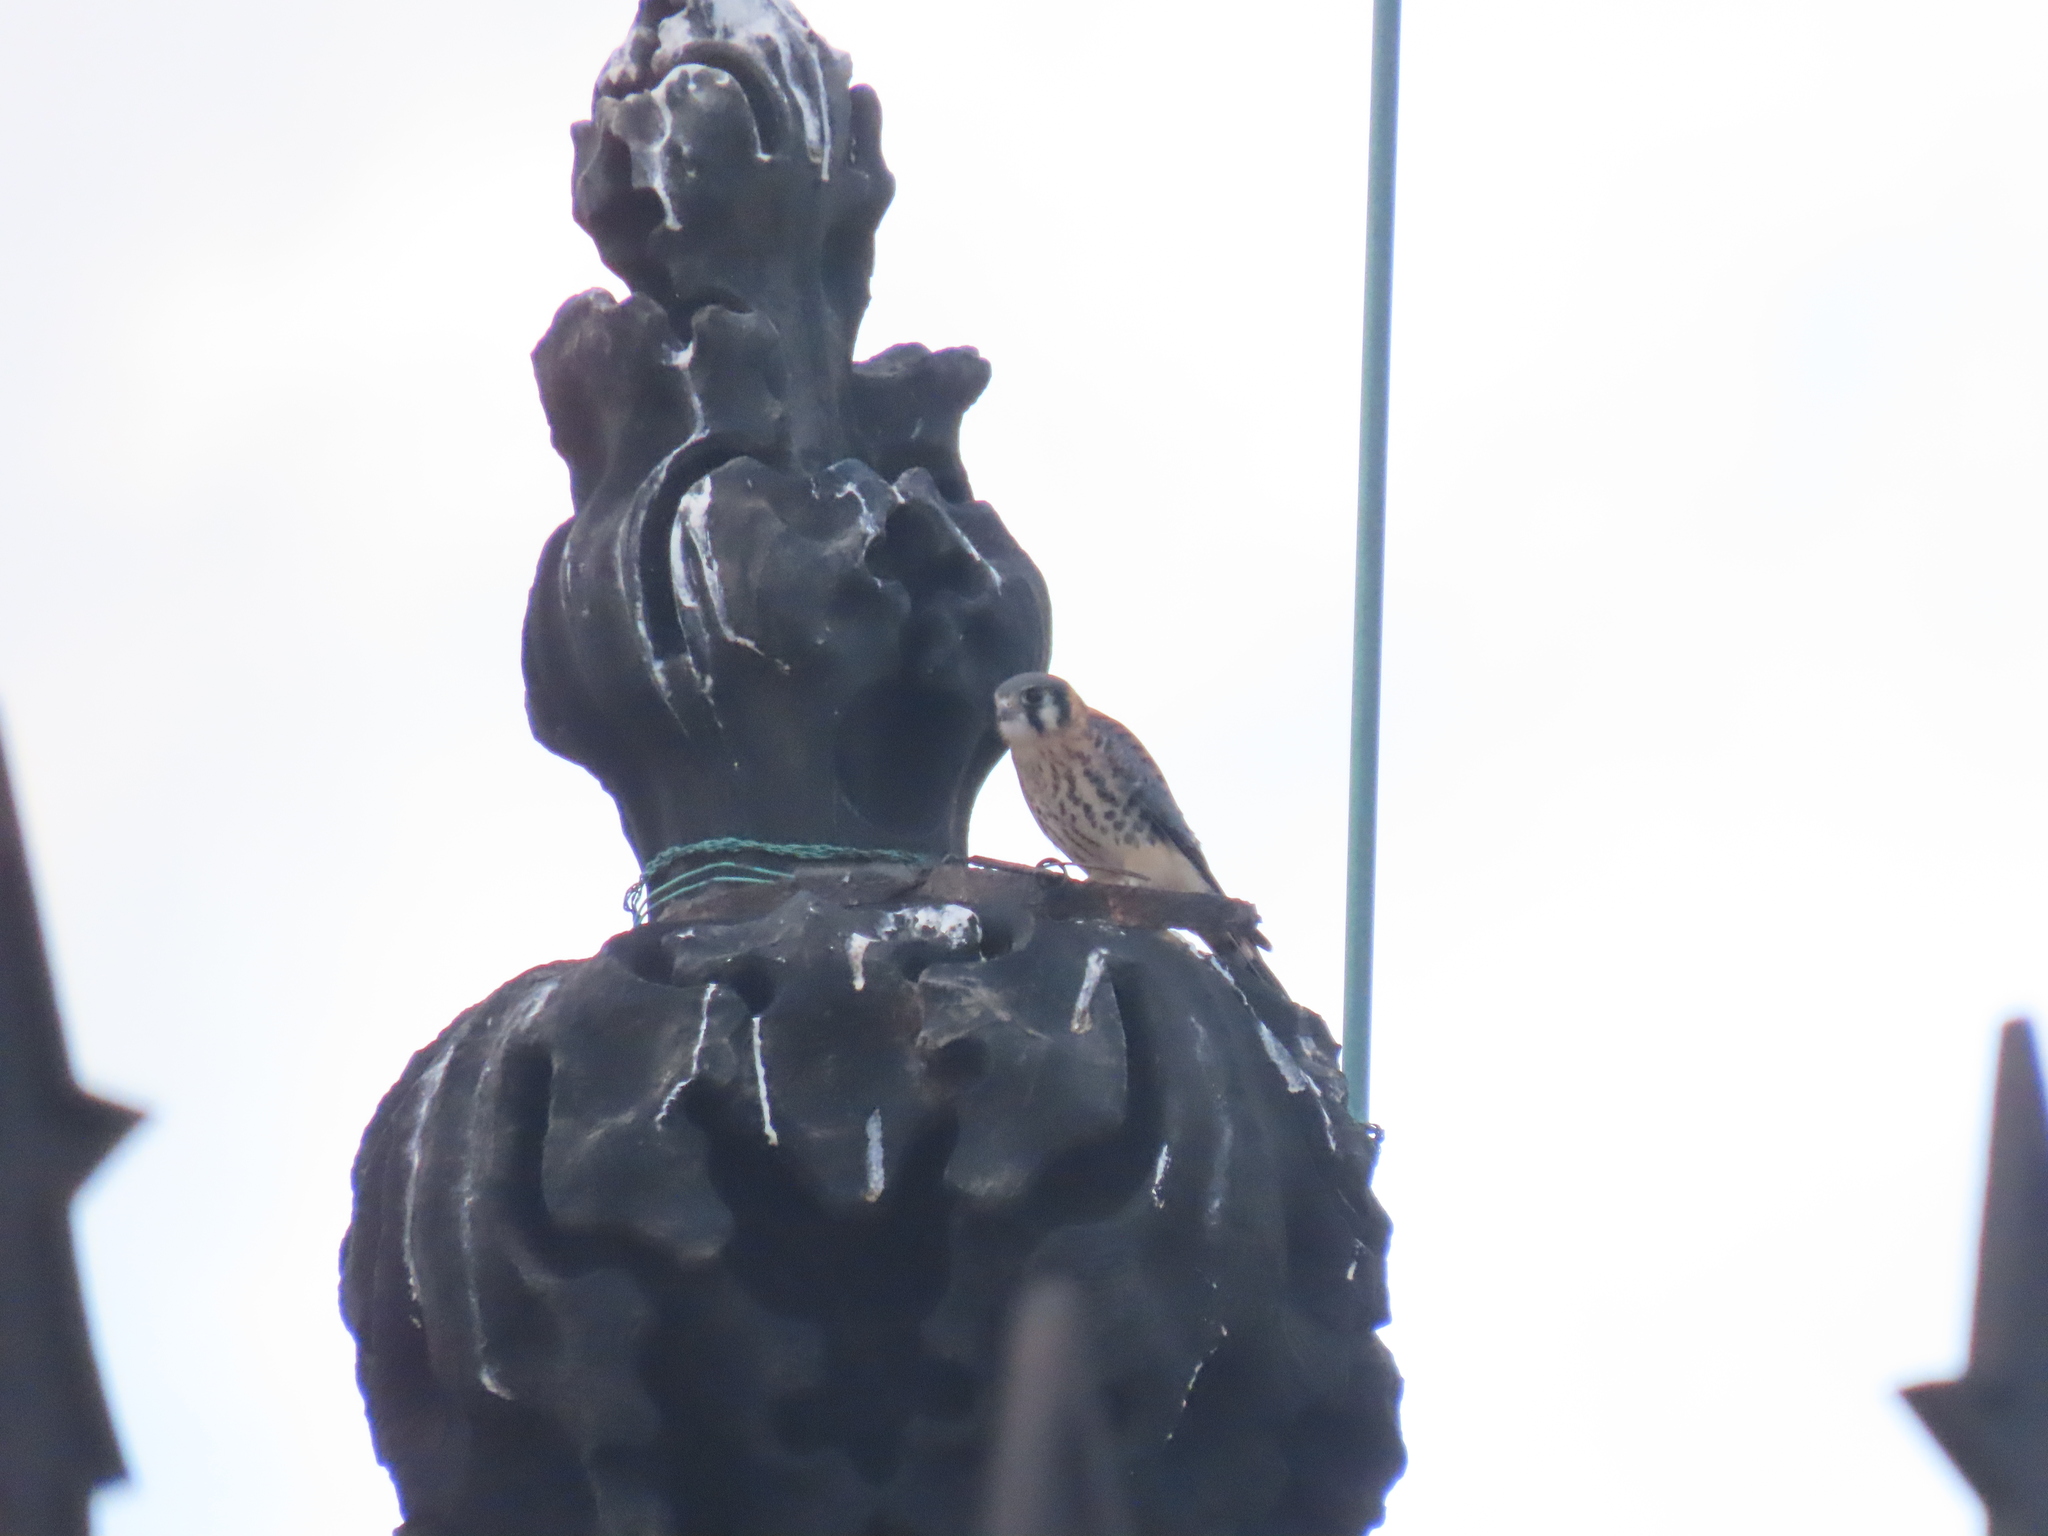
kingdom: Animalia
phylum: Chordata
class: Aves
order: Falconiformes
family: Falconidae
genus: Falco
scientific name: Falco sparverius
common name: American kestrel
